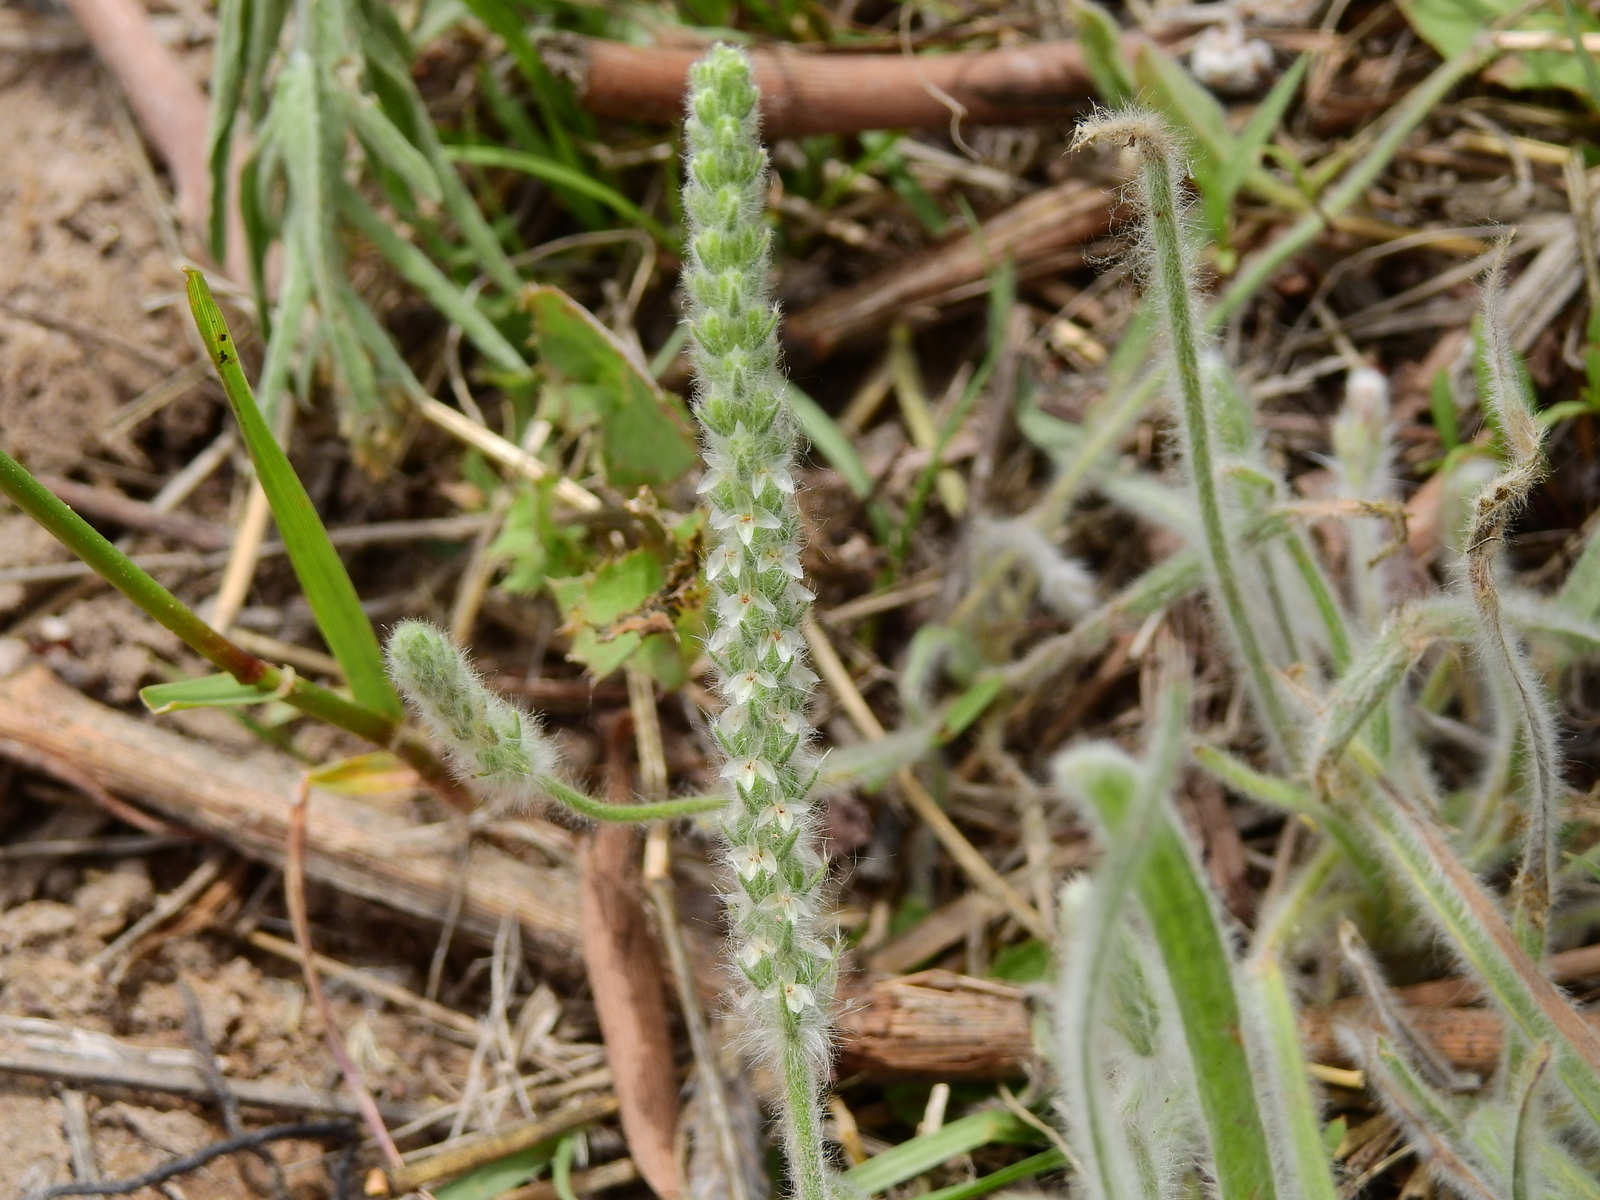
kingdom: Plantae
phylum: Tracheophyta
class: Magnoliopsida
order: Lamiales
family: Plantaginaceae
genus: Plantago
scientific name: Plantago patagonica
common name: Patagonia indian-wheat
